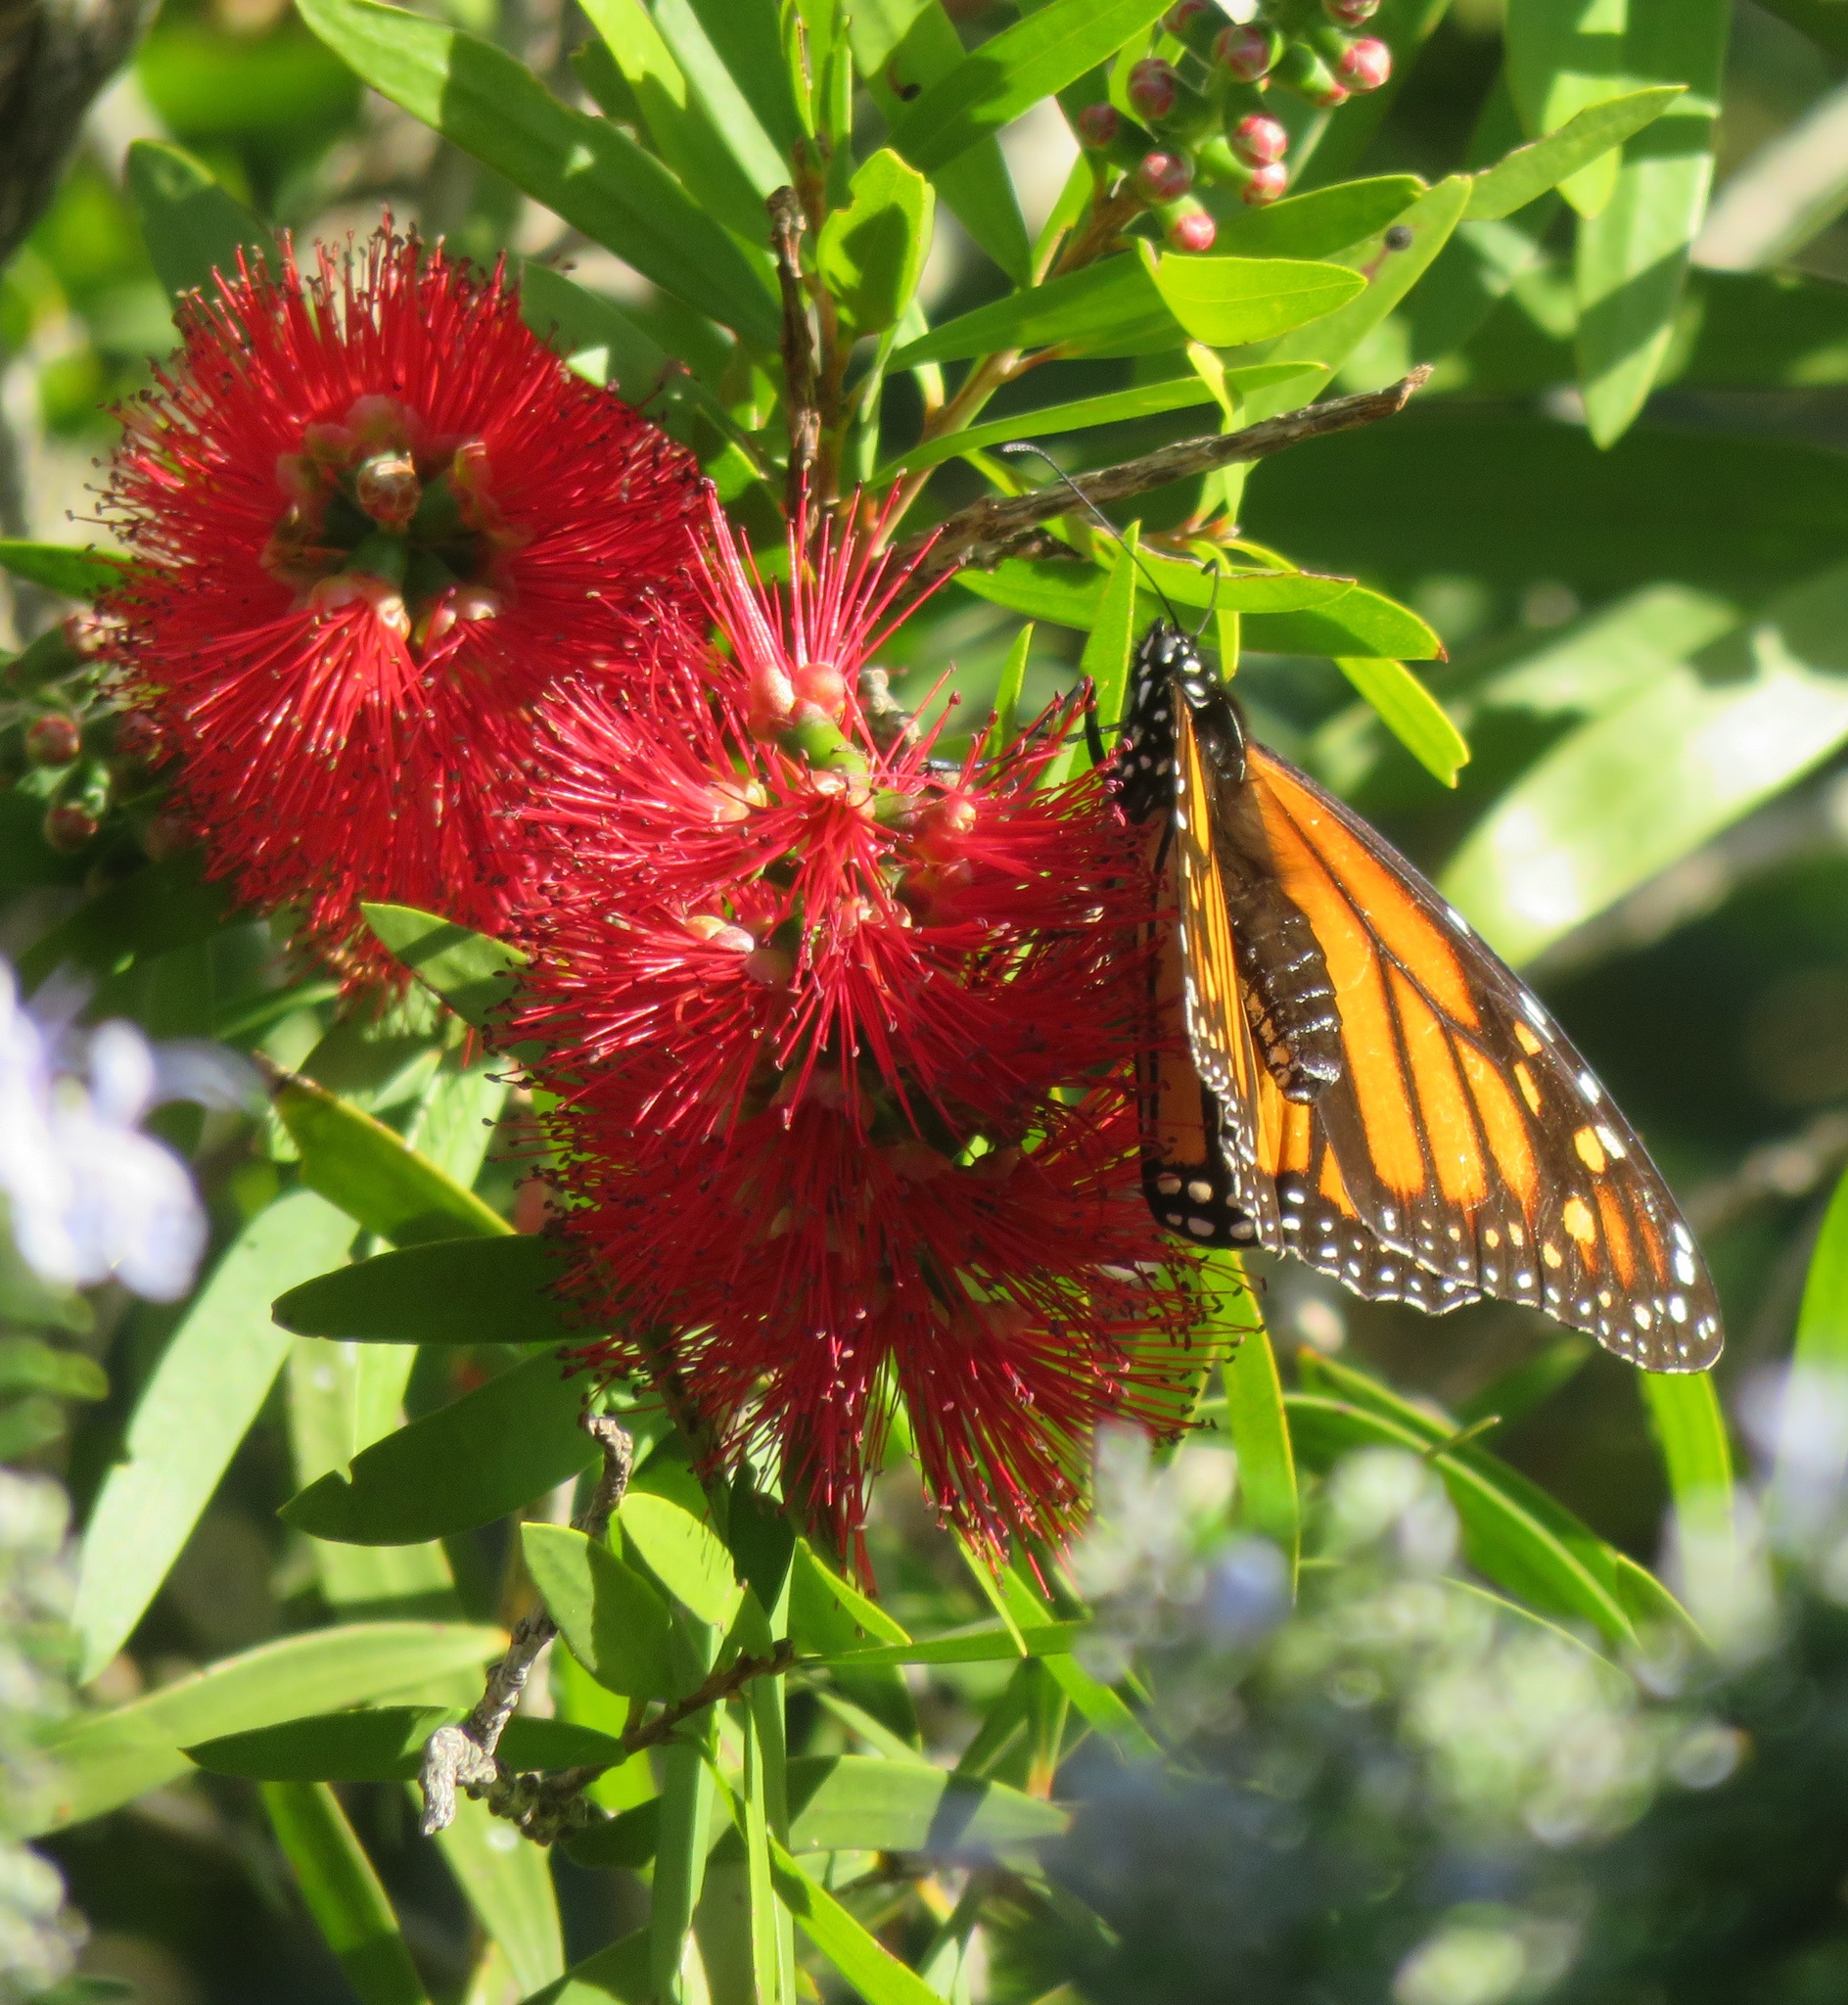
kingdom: Animalia
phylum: Arthropoda
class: Insecta
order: Lepidoptera
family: Nymphalidae
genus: Danaus
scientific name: Danaus plexippus
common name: Monarch
